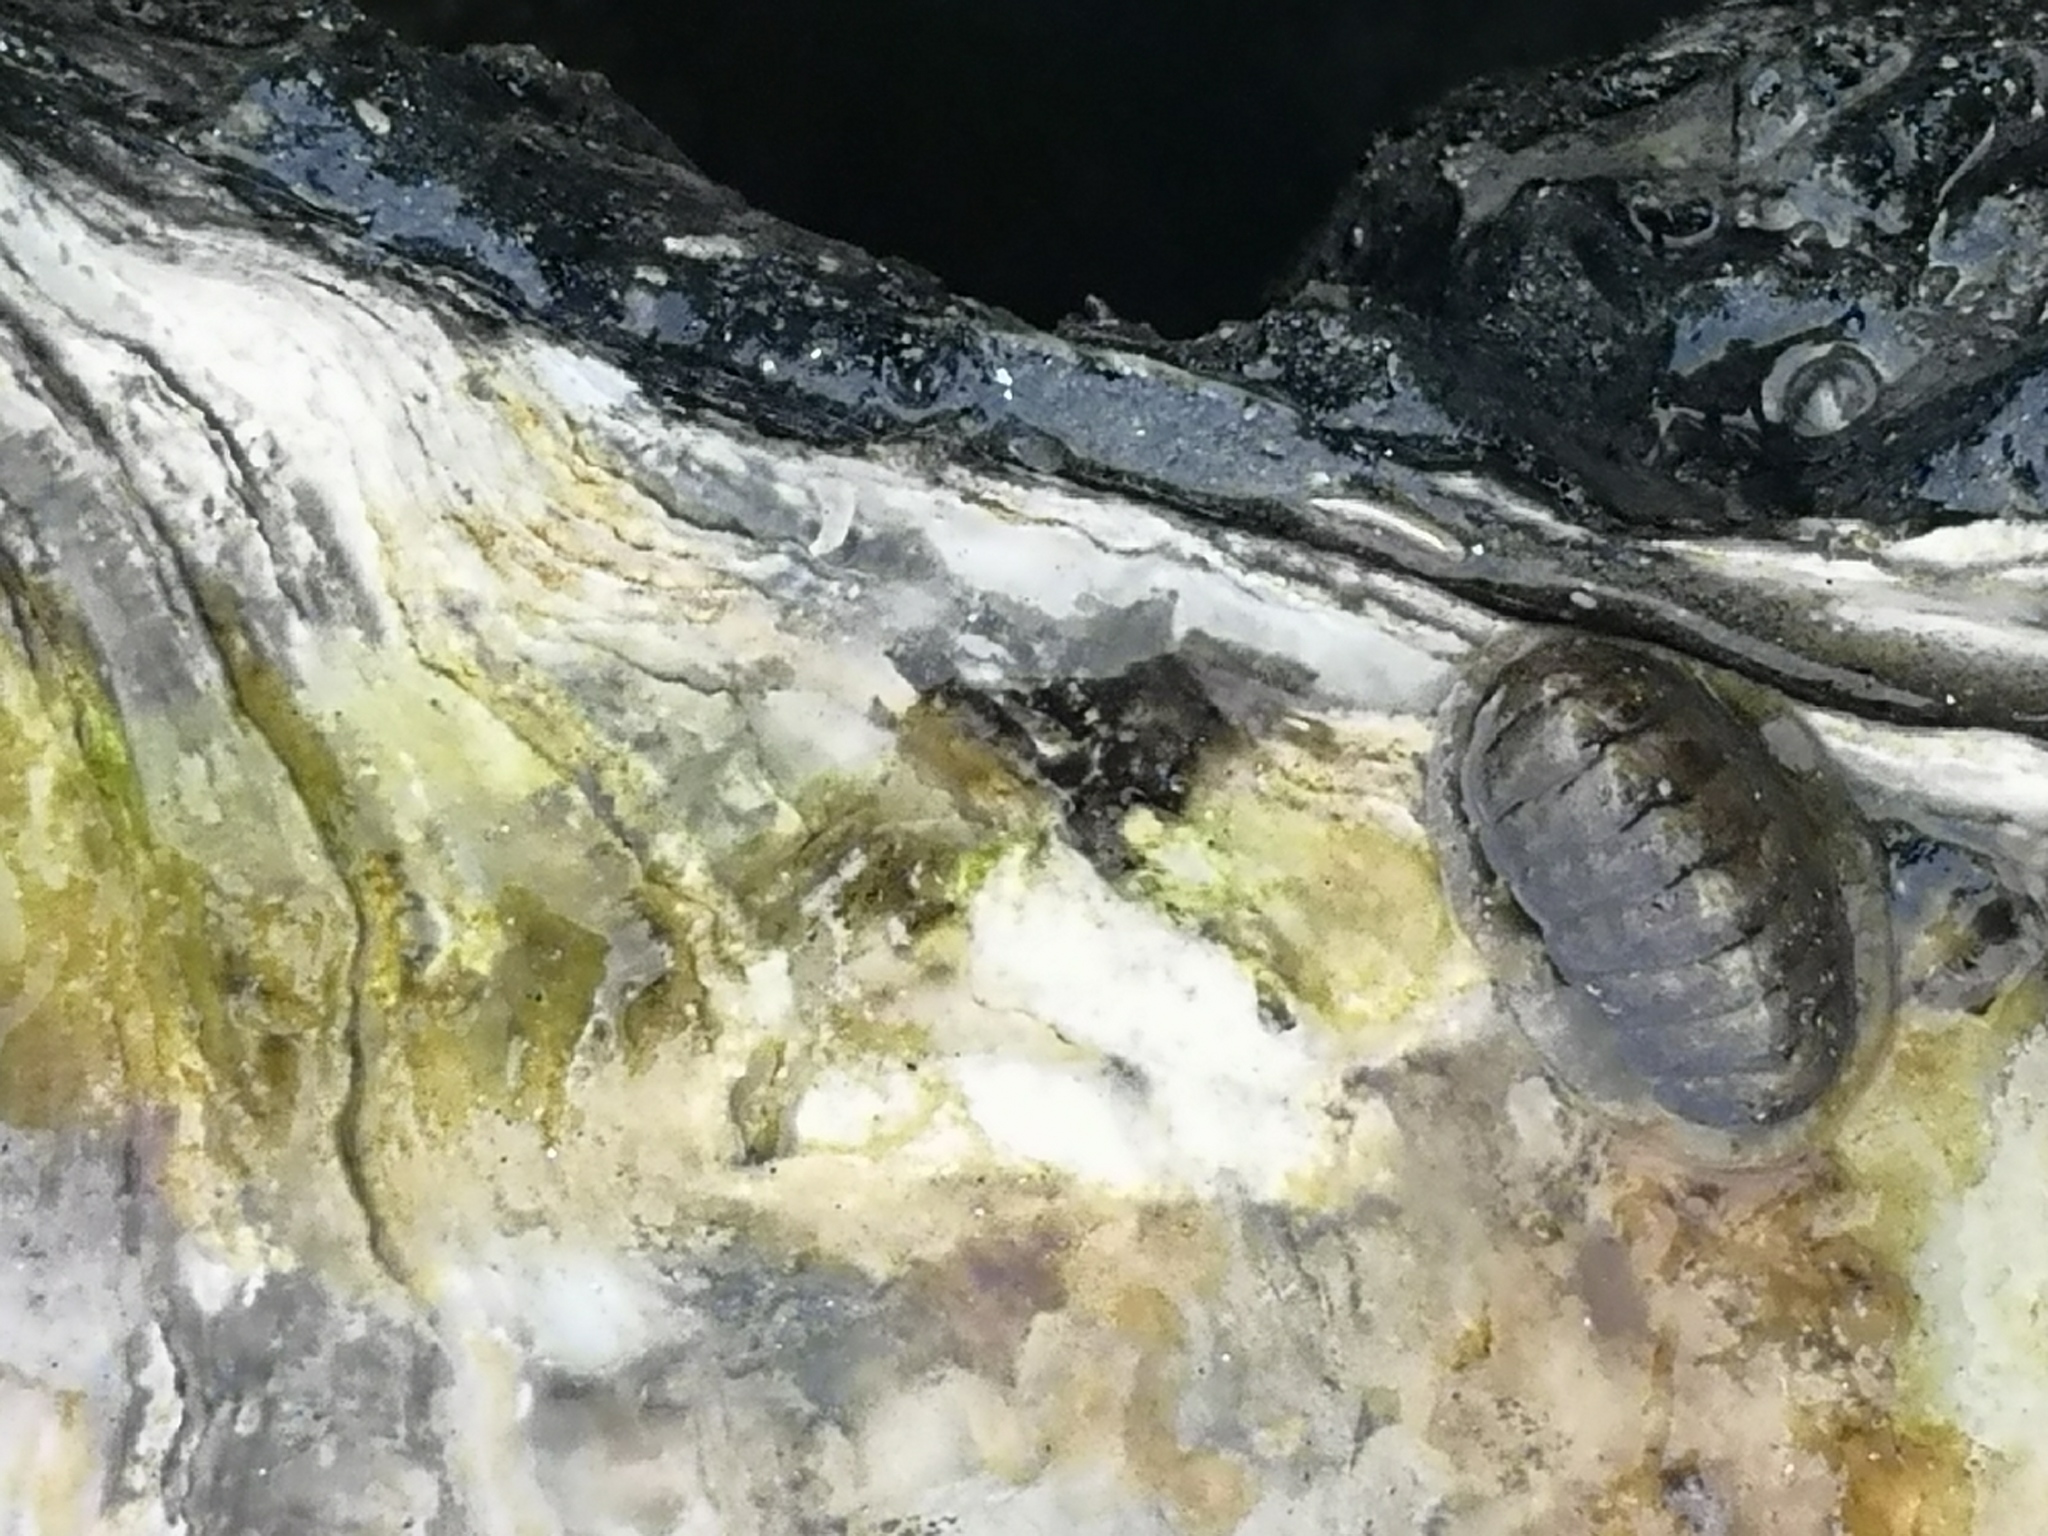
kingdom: Animalia
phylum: Mollusca
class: Polyplacophora
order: Chitonida
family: Tonicellidae
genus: Lepidochitona
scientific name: Lepidochitona cinerea
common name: Cinereous chiton
